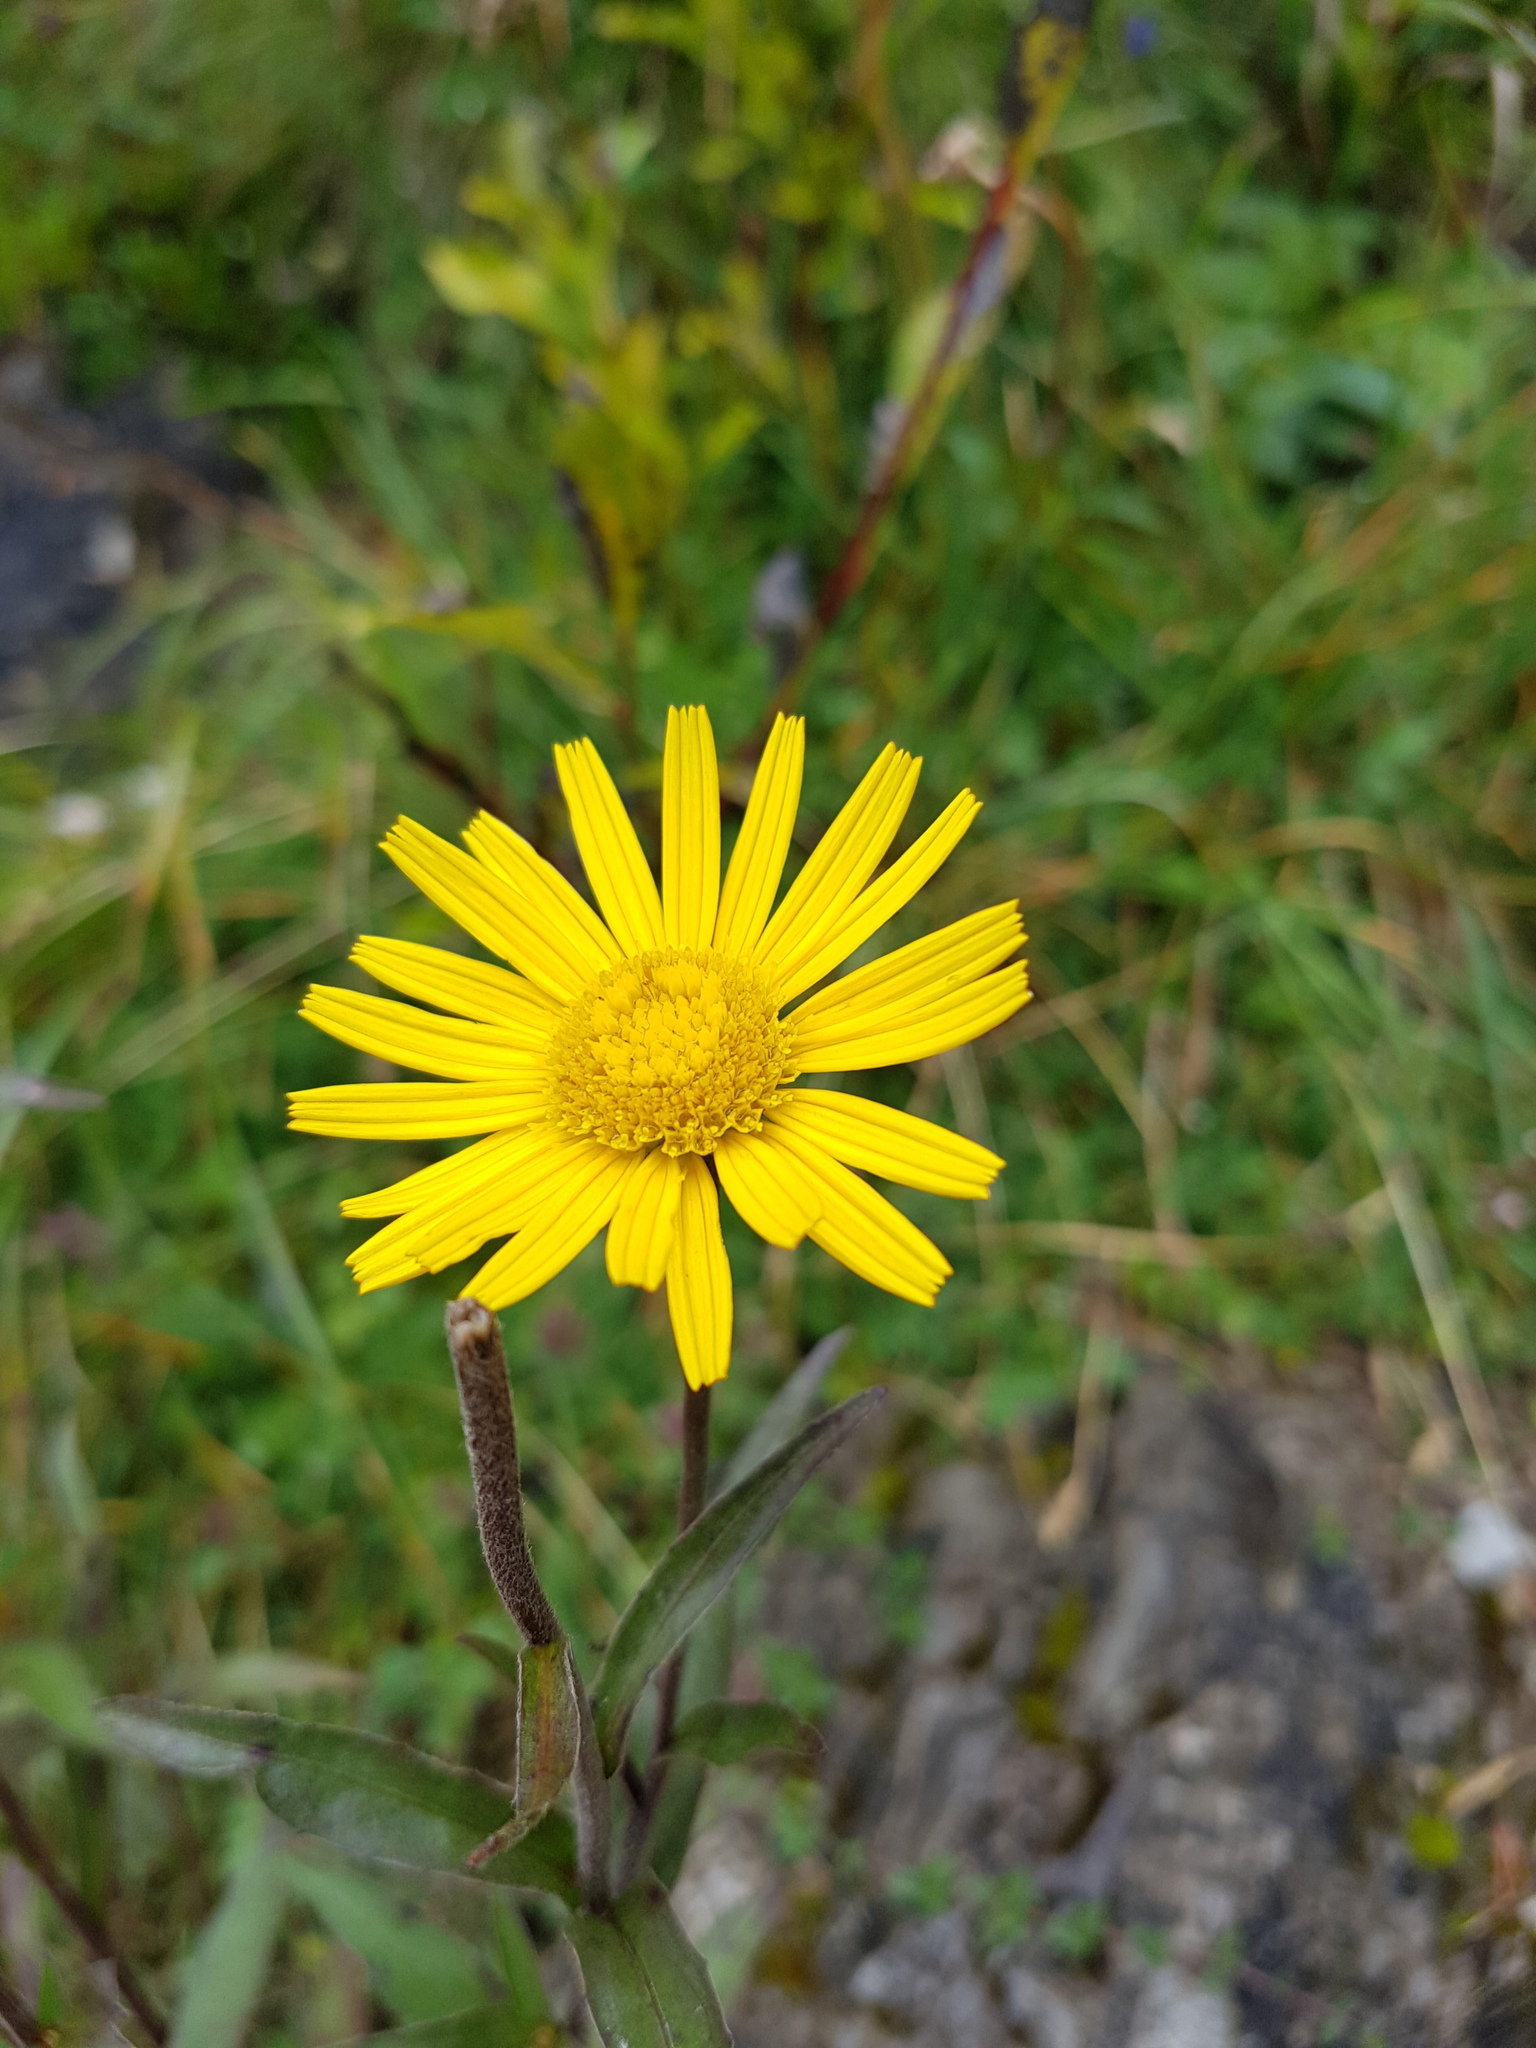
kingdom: Plantae
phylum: Tracheophyta
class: Magnoliopsida
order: Asterales
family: Asteraceae
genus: Buphthalmum
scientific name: Buphthalmum salicifolium
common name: Willow-leaved yellow-oxeye
